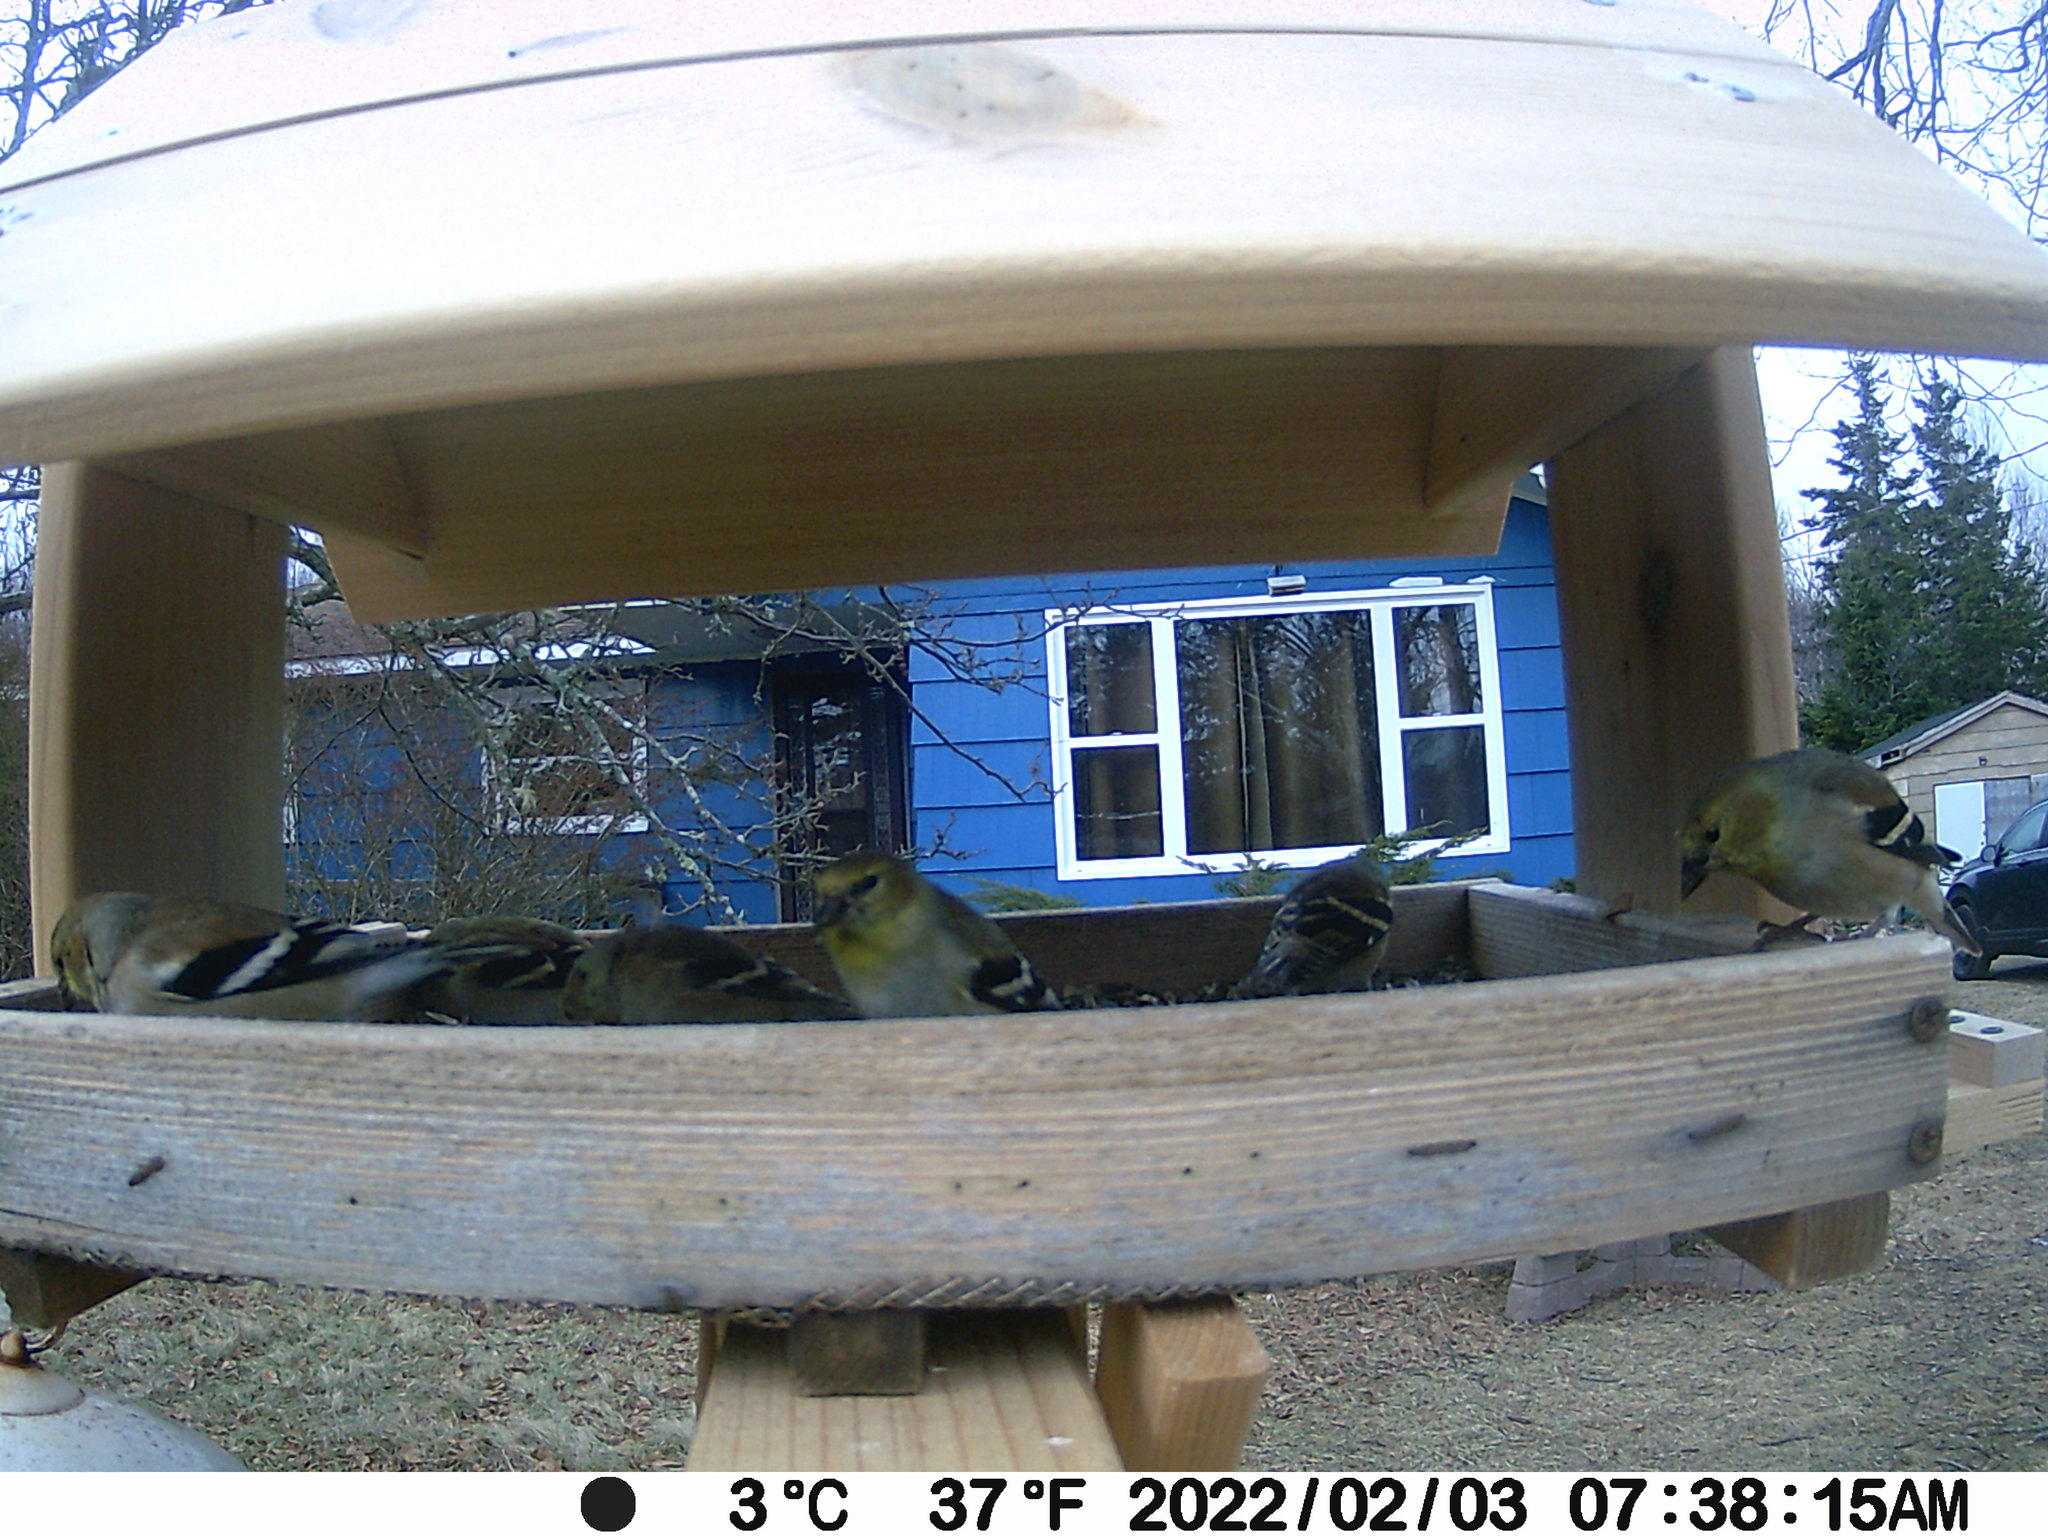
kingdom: Animalia
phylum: Chordata
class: Aves
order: Passeriformes
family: Fringillidae
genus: Spinus
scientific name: Spinus tristis
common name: American goldfinch
